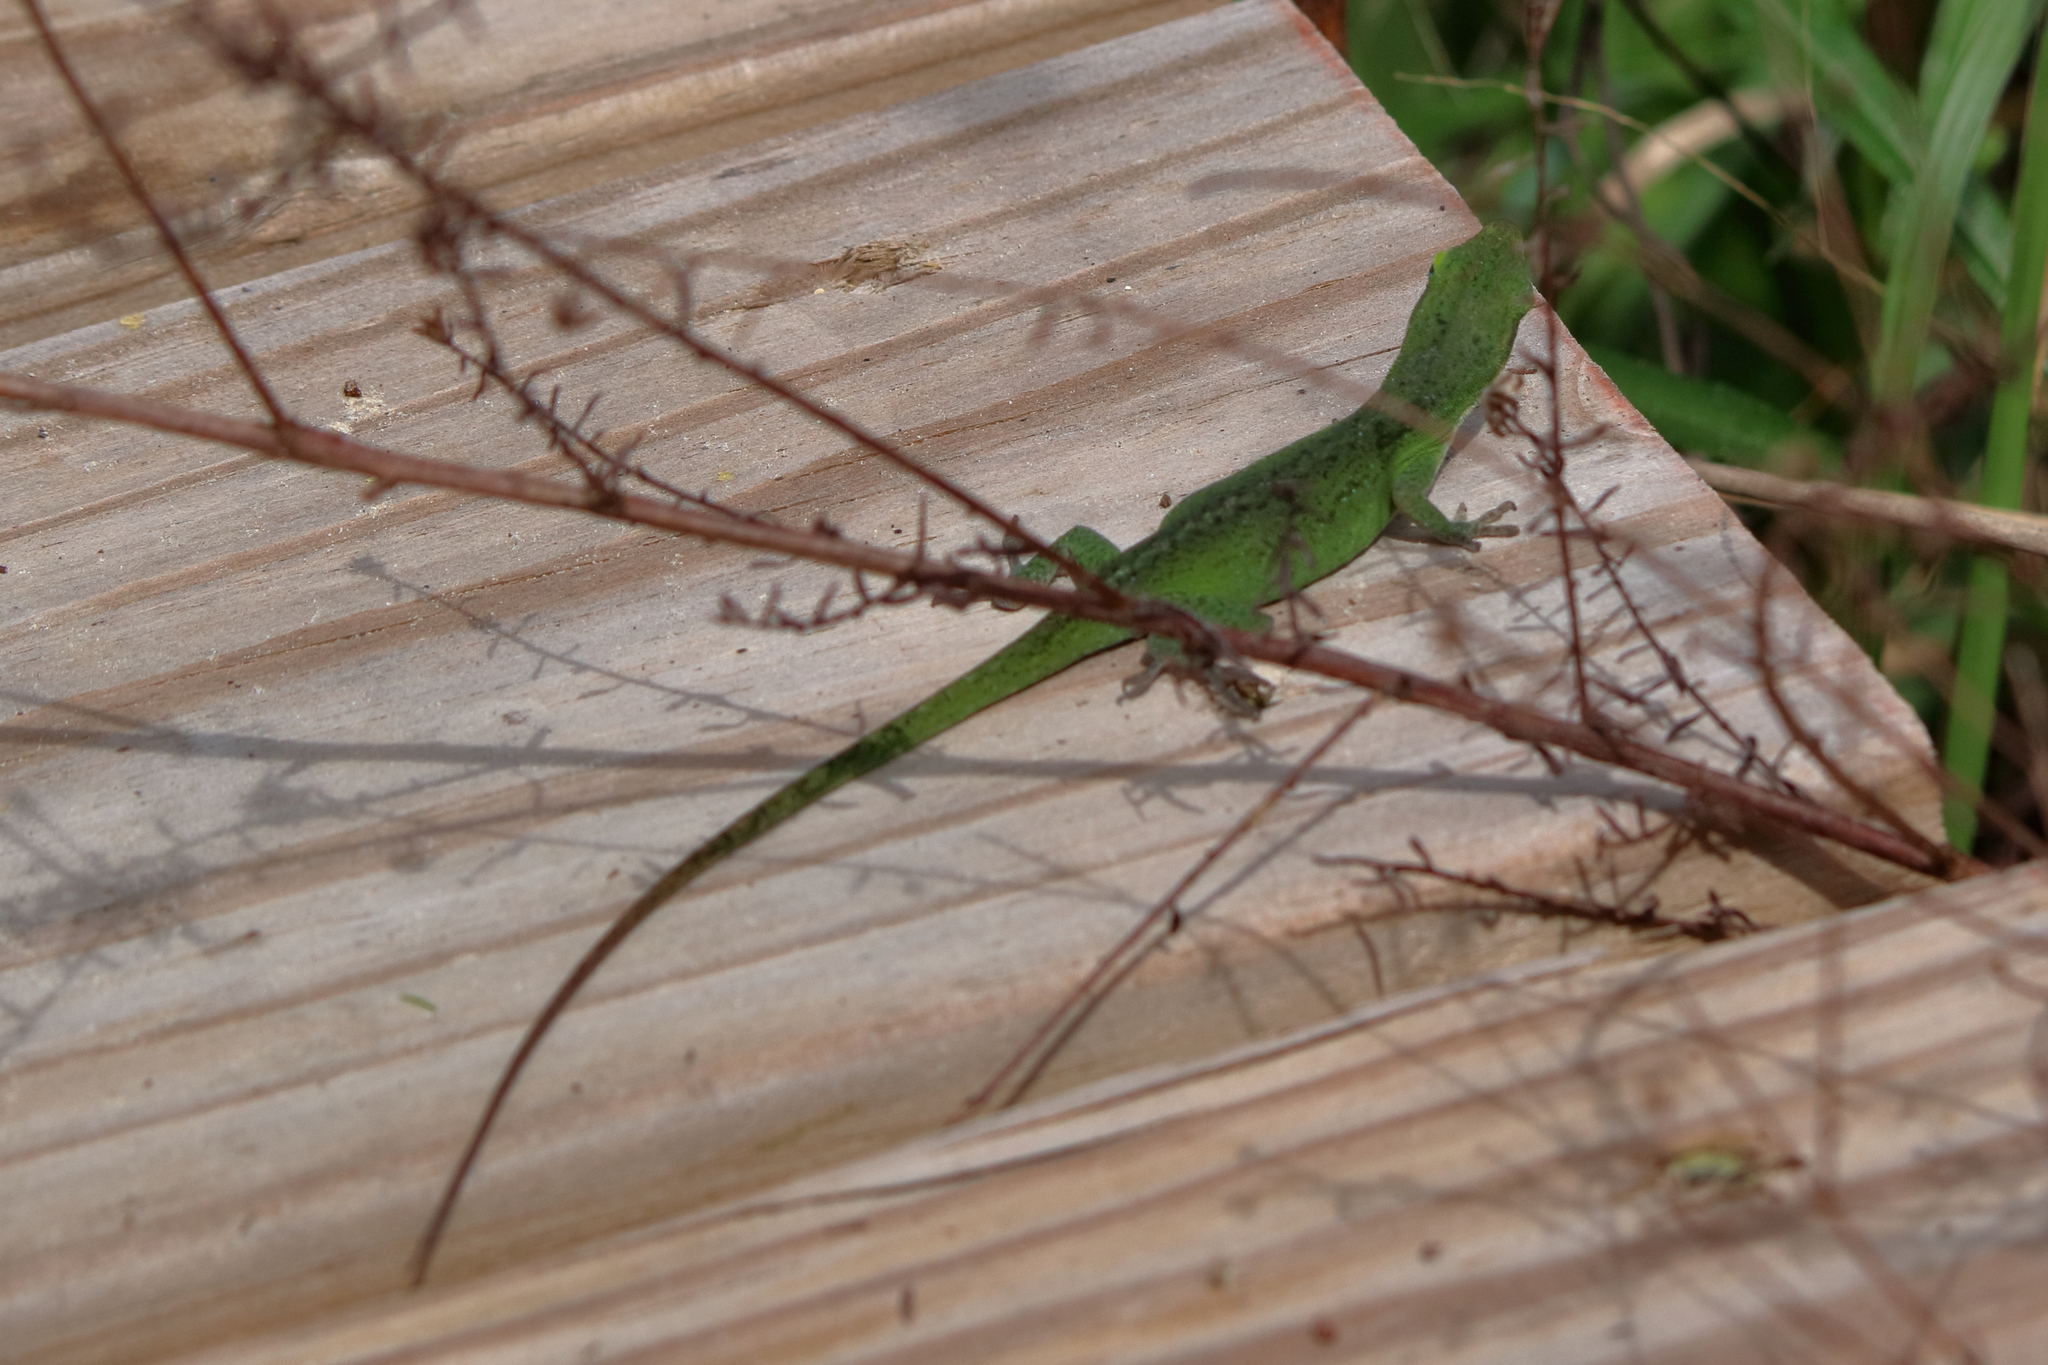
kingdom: Animalia
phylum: Chordata
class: Squamata
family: Dactyloidae
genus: Anolis
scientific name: Anolis carolinensis
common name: Green anole
